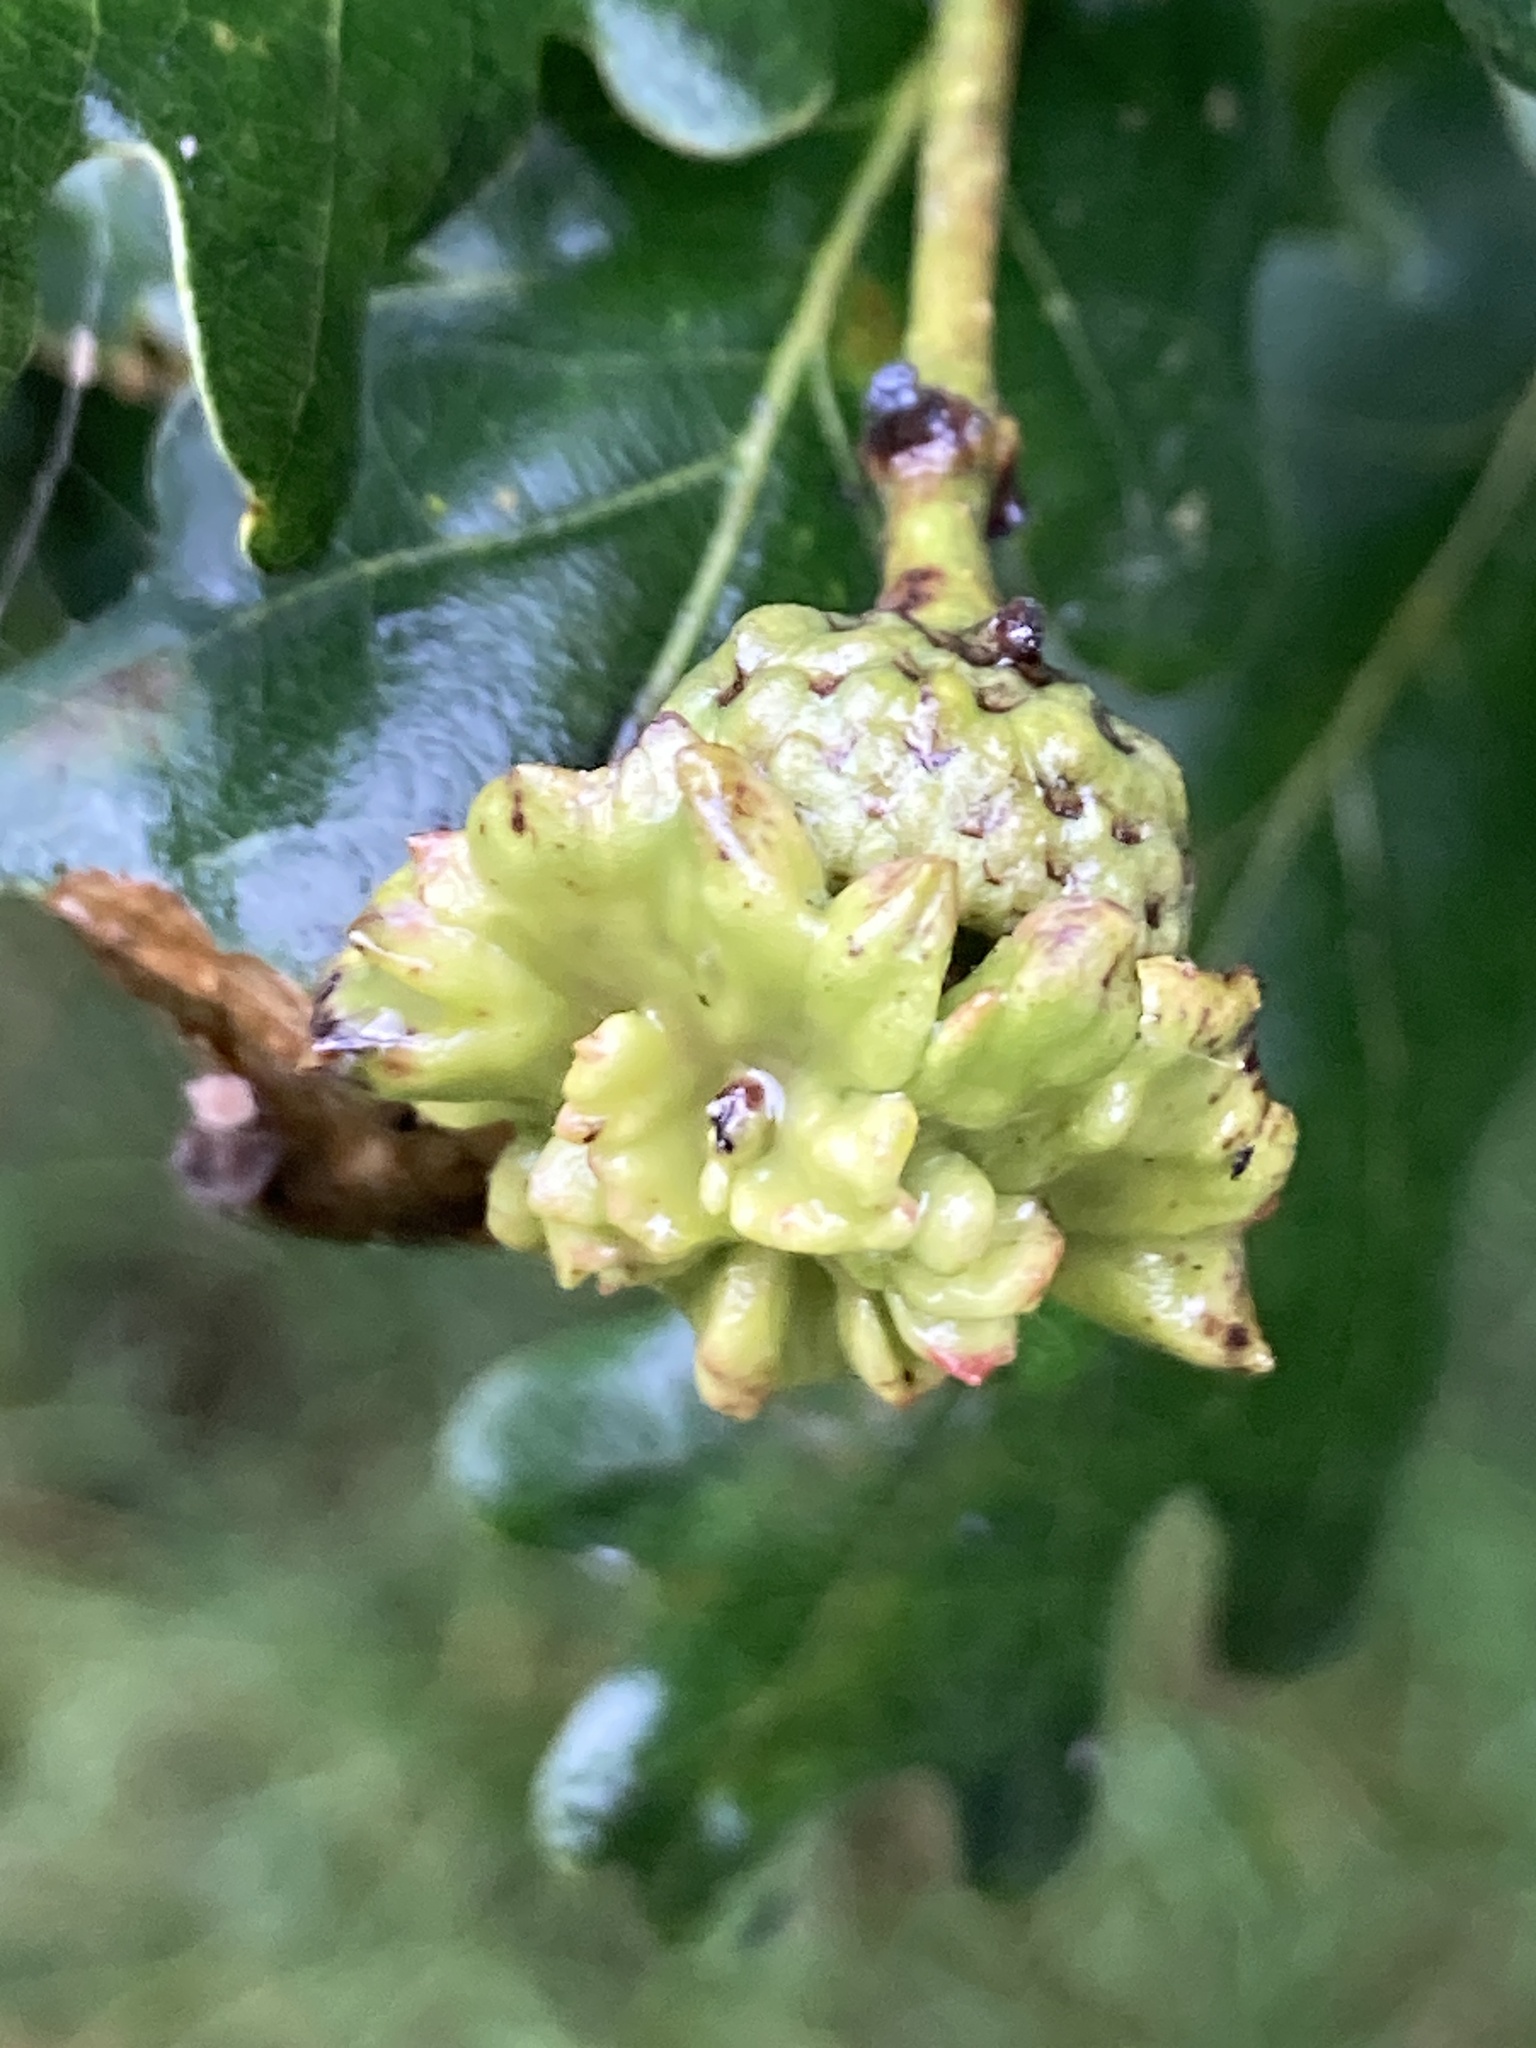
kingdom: Animalia
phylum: Arthropoda
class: Insecta
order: Hymenoptera
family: Cynipidae
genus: Andricus
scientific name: Andricus quercuscalicis
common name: Knopper gall
